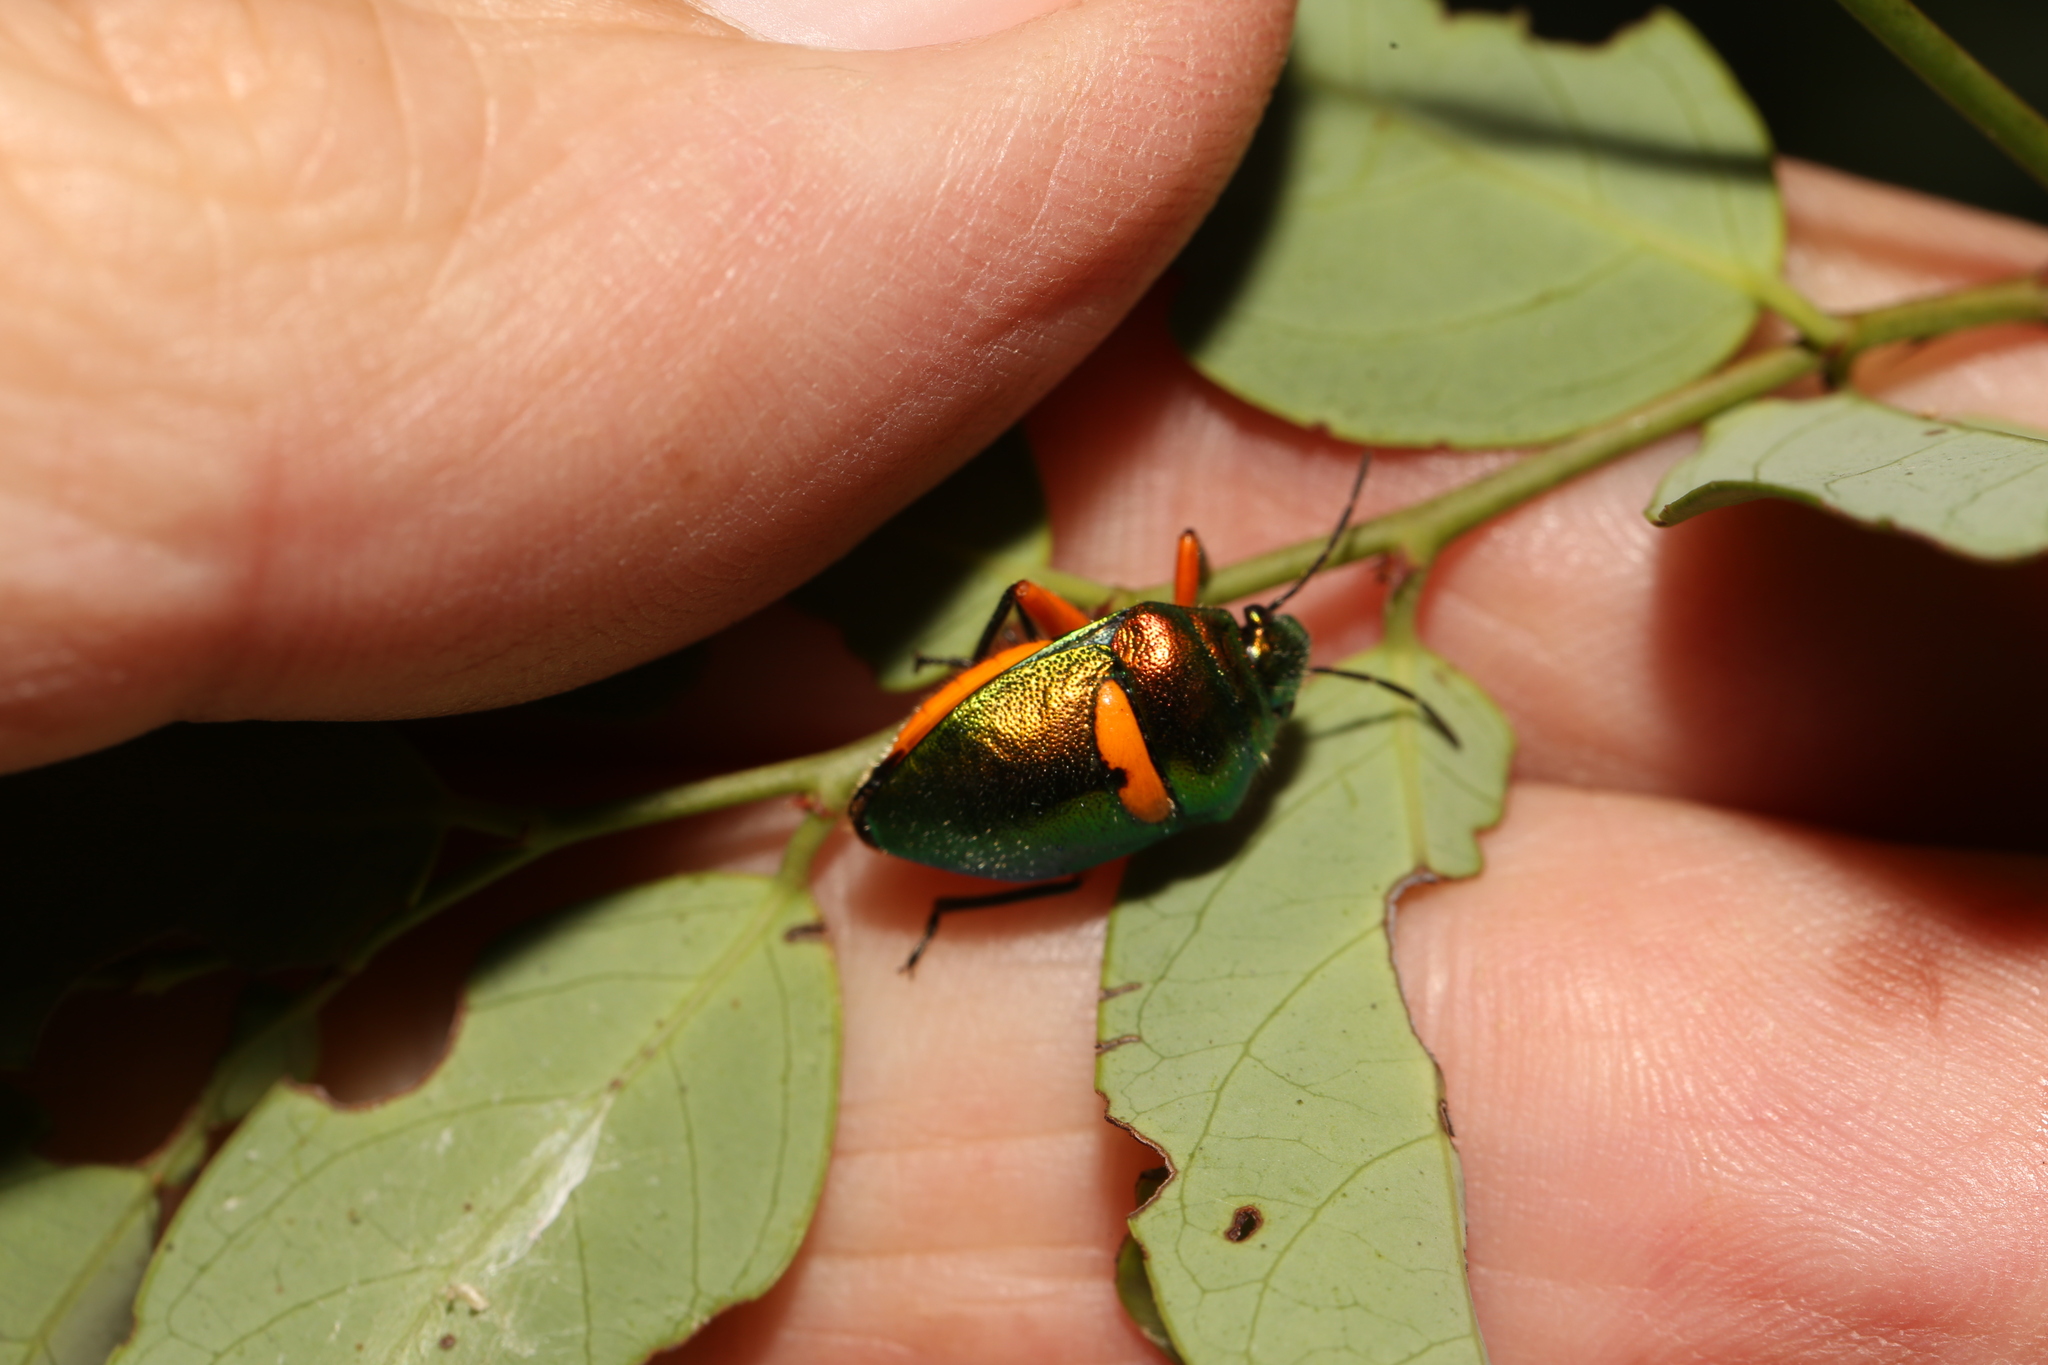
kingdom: Animalia
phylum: Arthropoda
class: Insecta
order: Hemiptera
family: Scutelleridae
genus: Lampromicra
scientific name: Lampromicra senator
